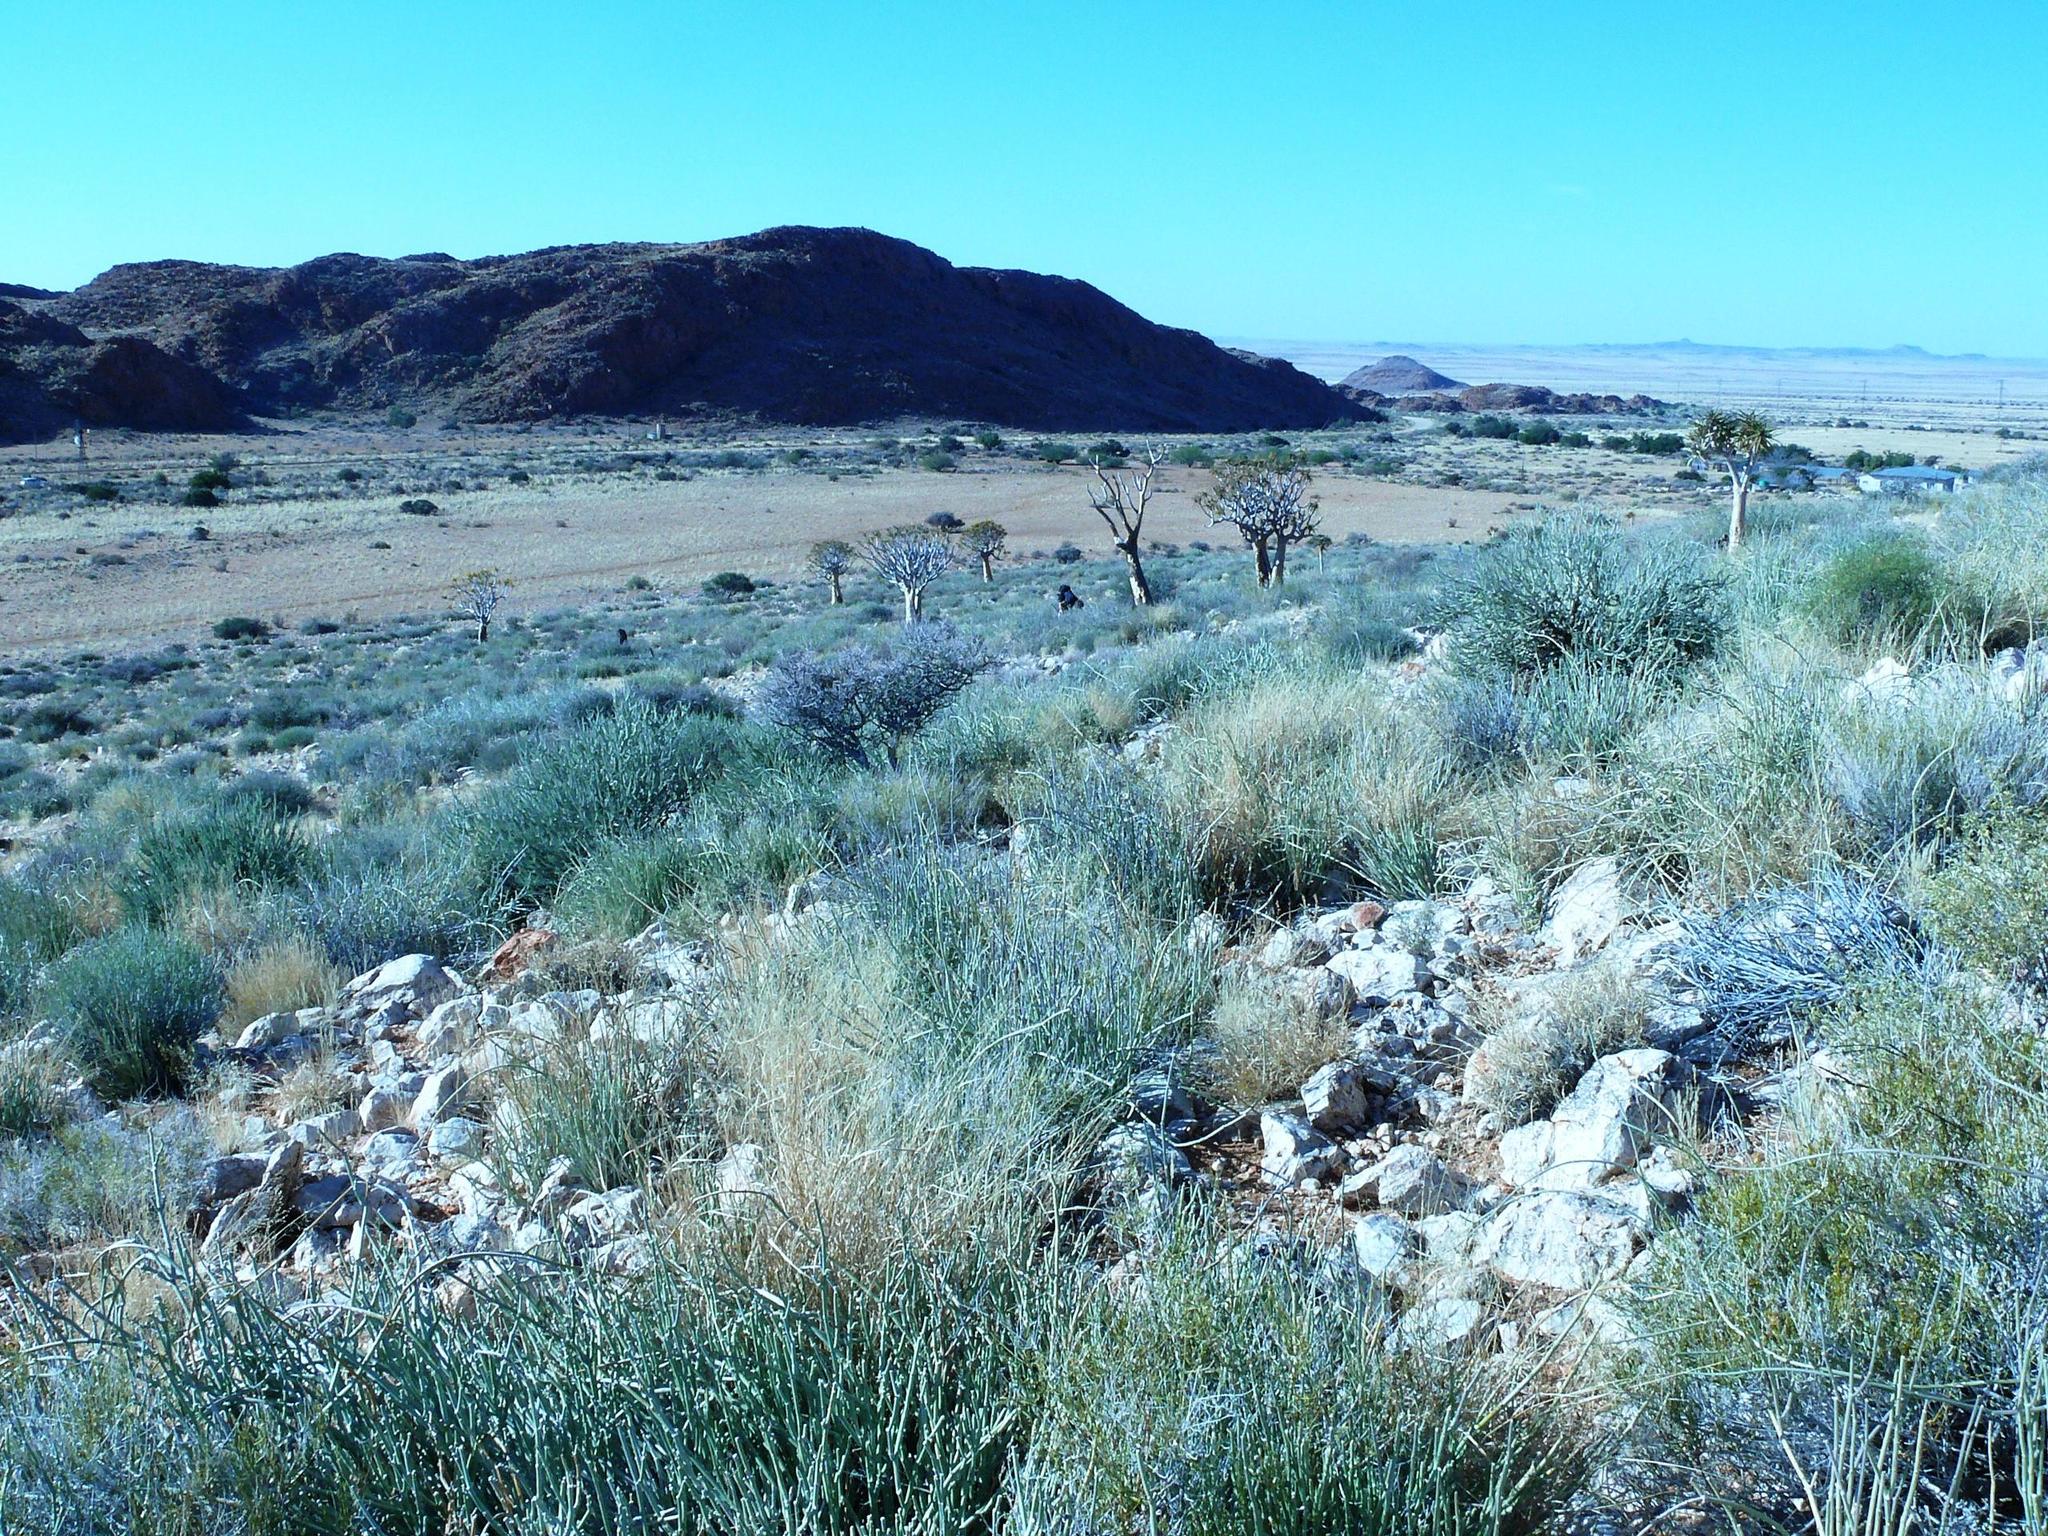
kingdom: Plantae
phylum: Tracheophyta
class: Liliopsida
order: Asparagales
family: Asphodelaceae
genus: Aloidendron
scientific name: Aloidendron dichotomum
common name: Quiver tree
